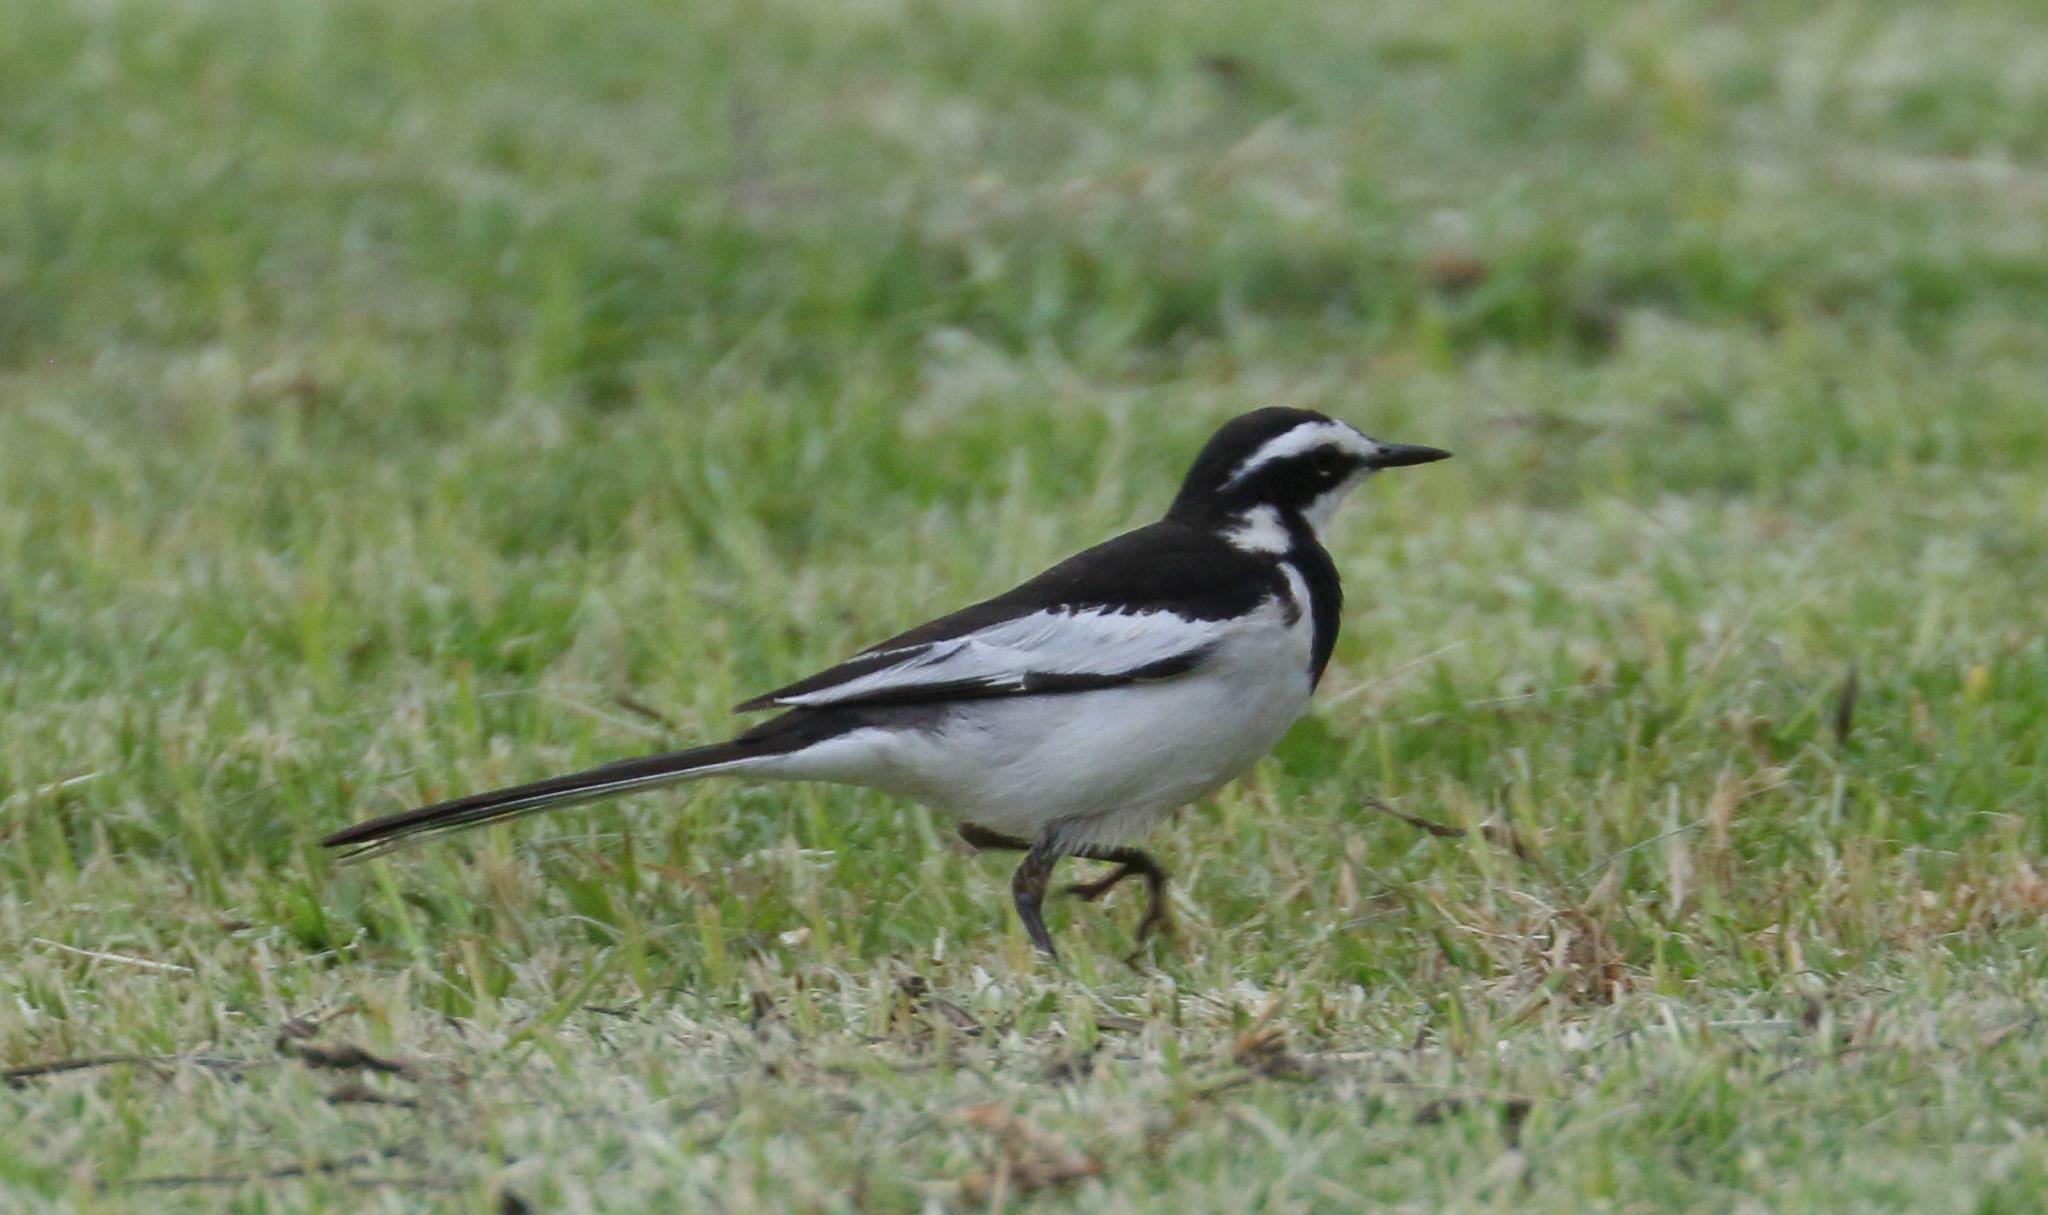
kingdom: Animalia
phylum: Chordata
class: Aves
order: Passeriformes
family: Motacillidae
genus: Motacilla
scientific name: Motacilla aguimp
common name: African pied wagtail
